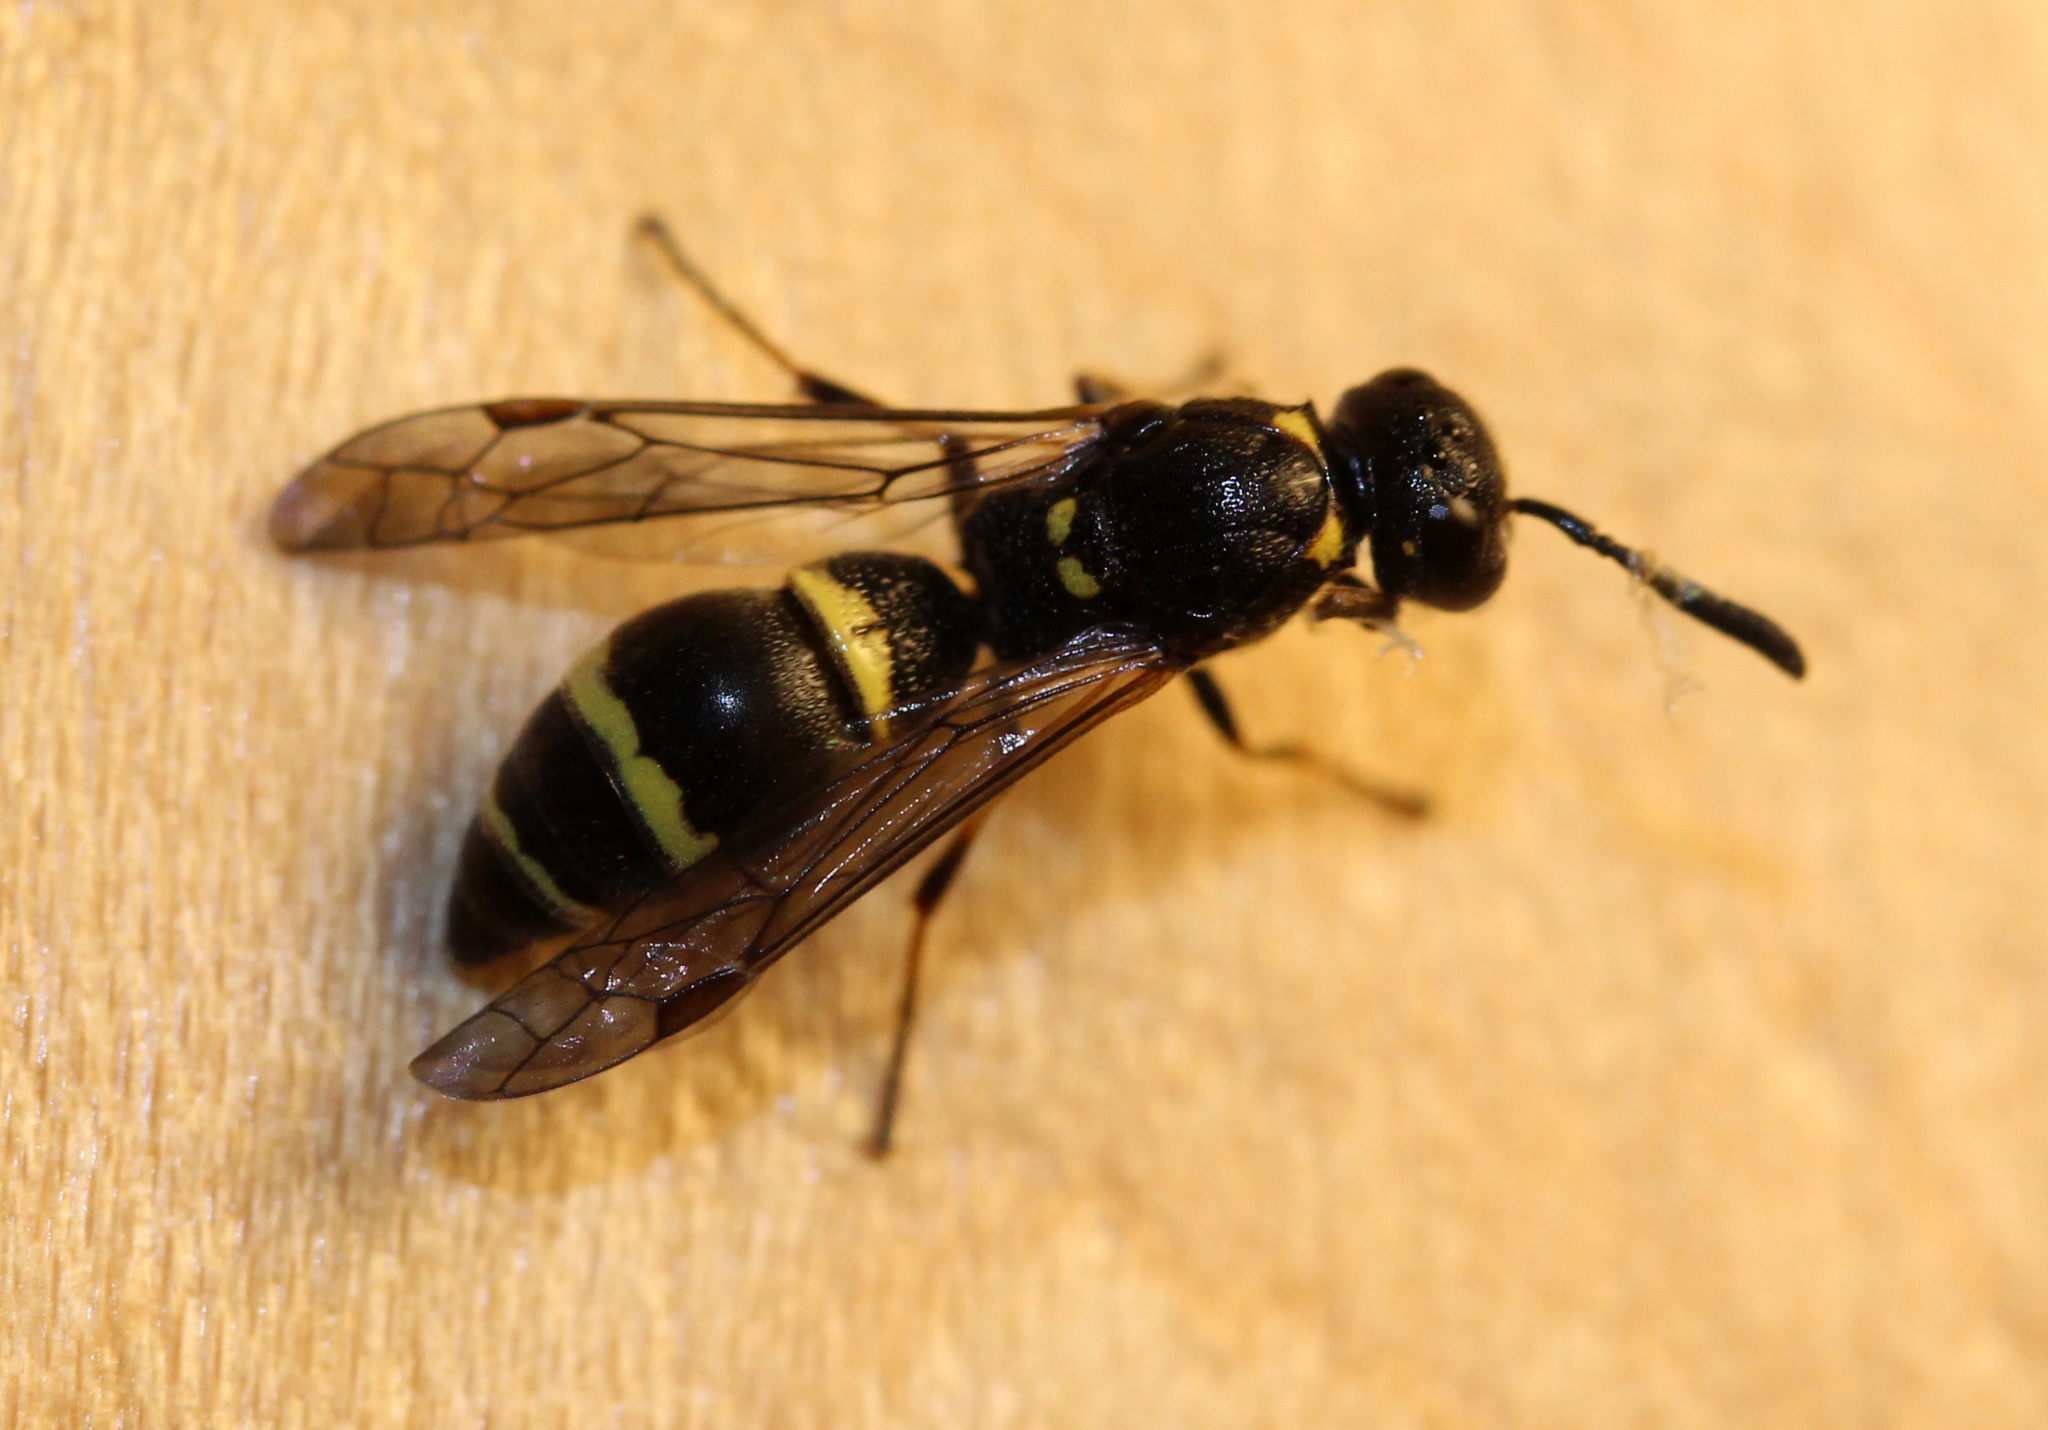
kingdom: Animalia
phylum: Arthropoda
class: Insecta
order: Hymenoptera
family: Eumenidae
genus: Symmorphus
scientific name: Symmorphus
